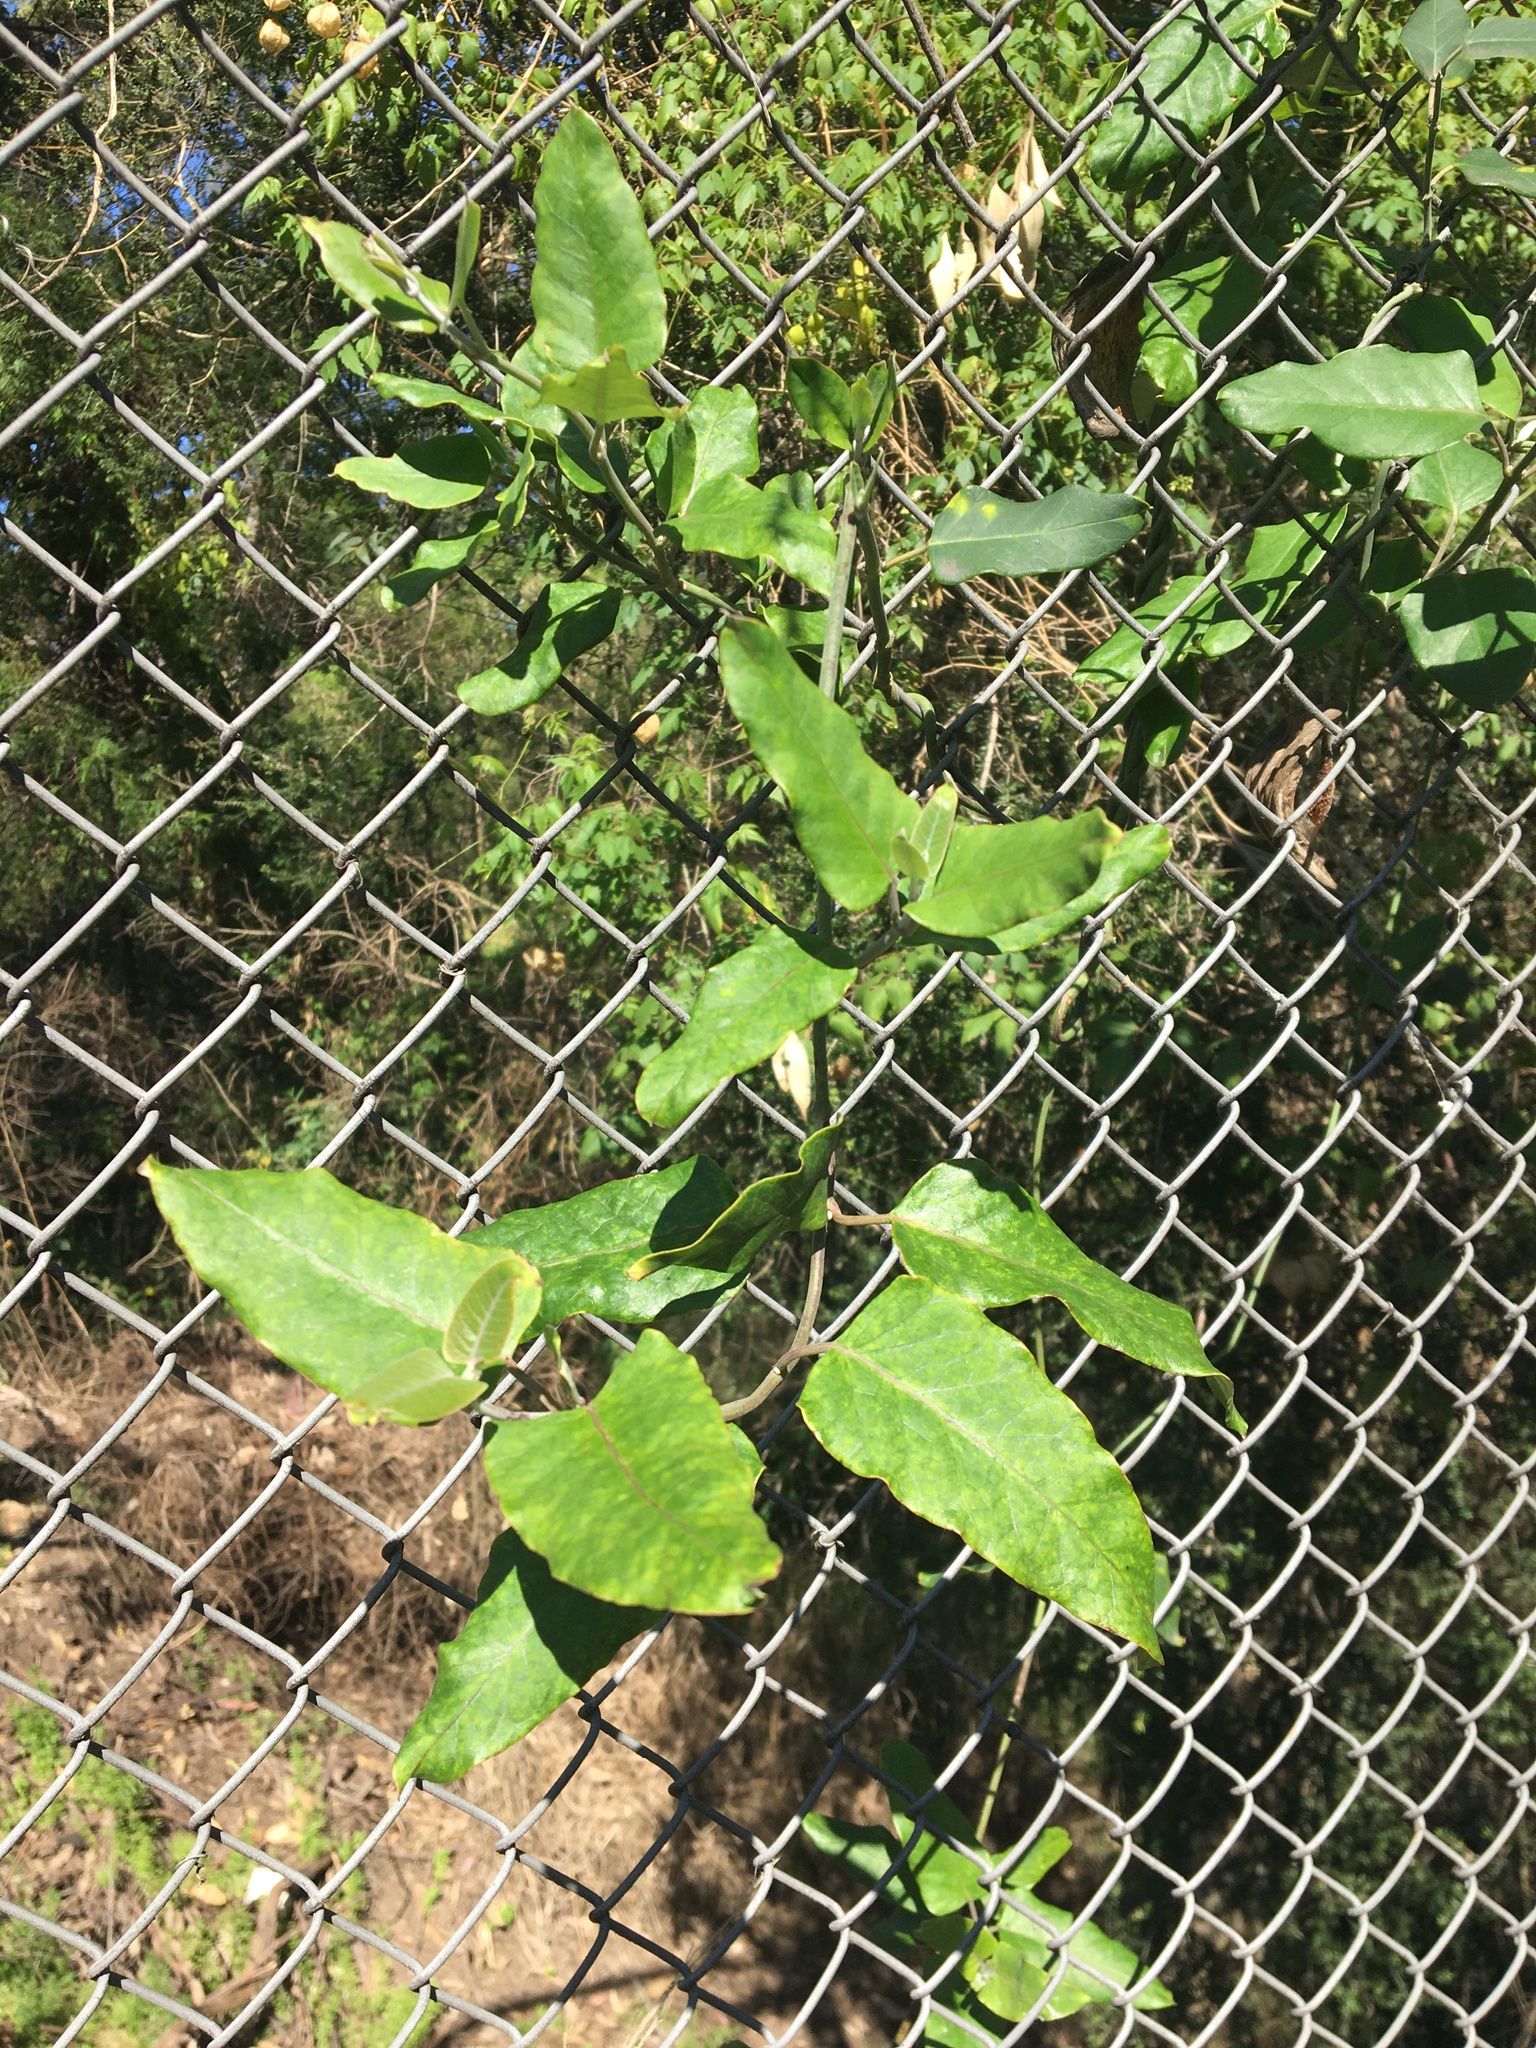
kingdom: Plantae
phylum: Tracheophyta
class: Magnoliopsida
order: Gentianales
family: Apocynaceae
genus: Araujia
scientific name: Araujia sericifera
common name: White bladderflower
